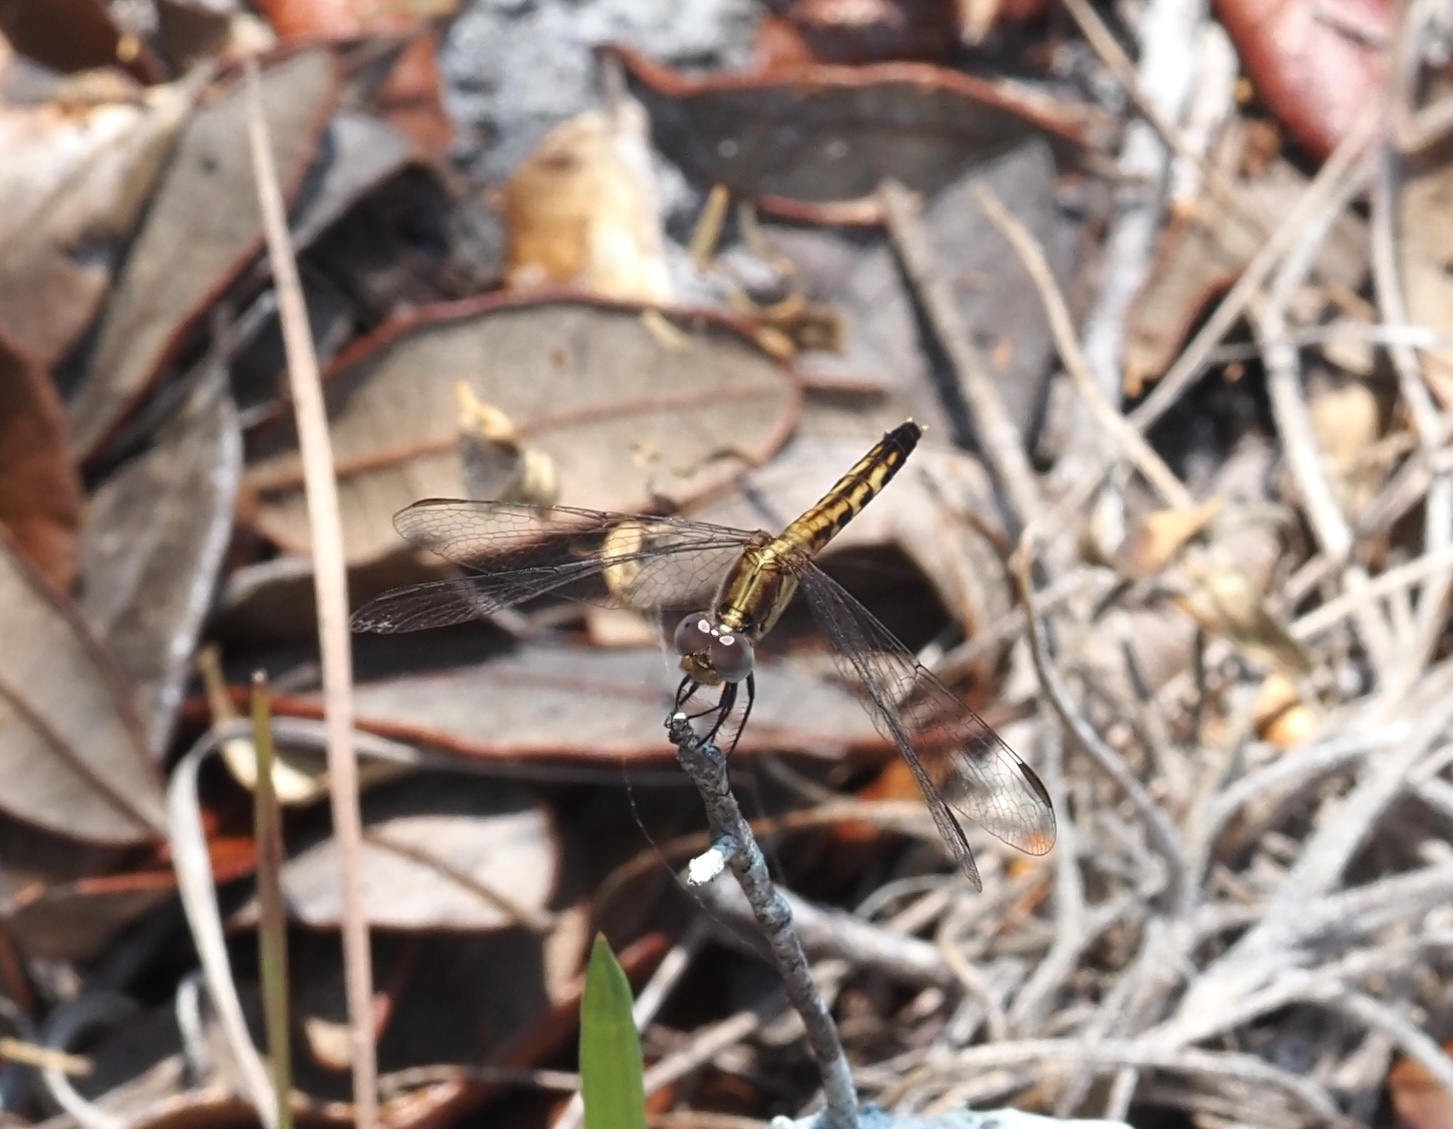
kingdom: Animalia
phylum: Arthropoda
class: Insecta
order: Odonata
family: Libellulidae
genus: Erythrodiplax
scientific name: Erythrodiplax minuscula
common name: Little blue dragonlet
